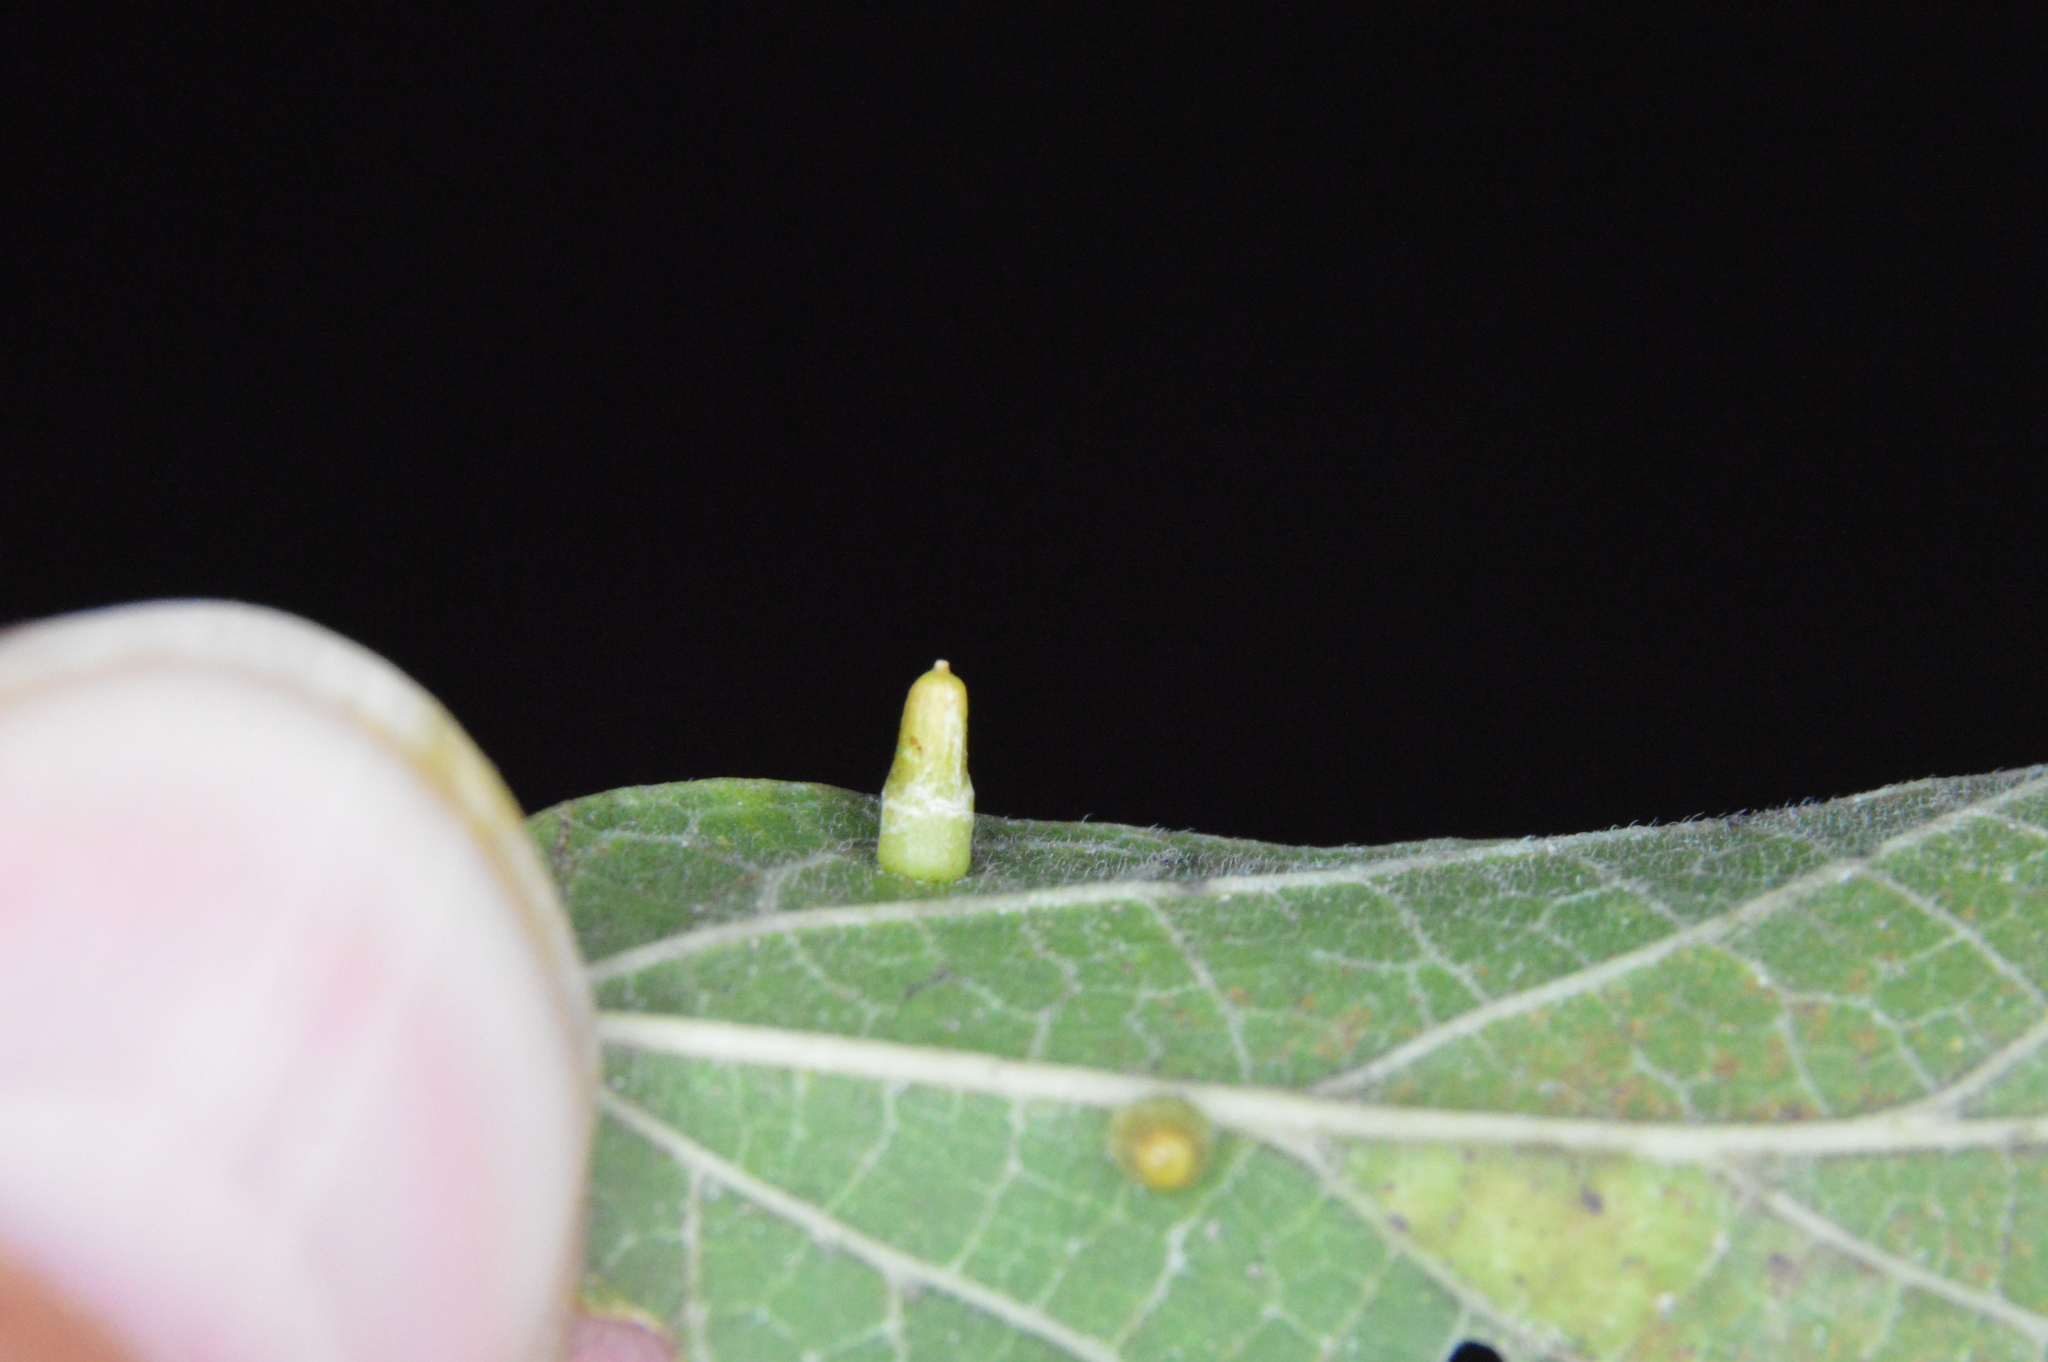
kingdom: Animalia
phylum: Arthropoda
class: Insecta
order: Diptera
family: Cecidomyiidae
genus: Celticecis
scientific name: Celticecis aciculata
